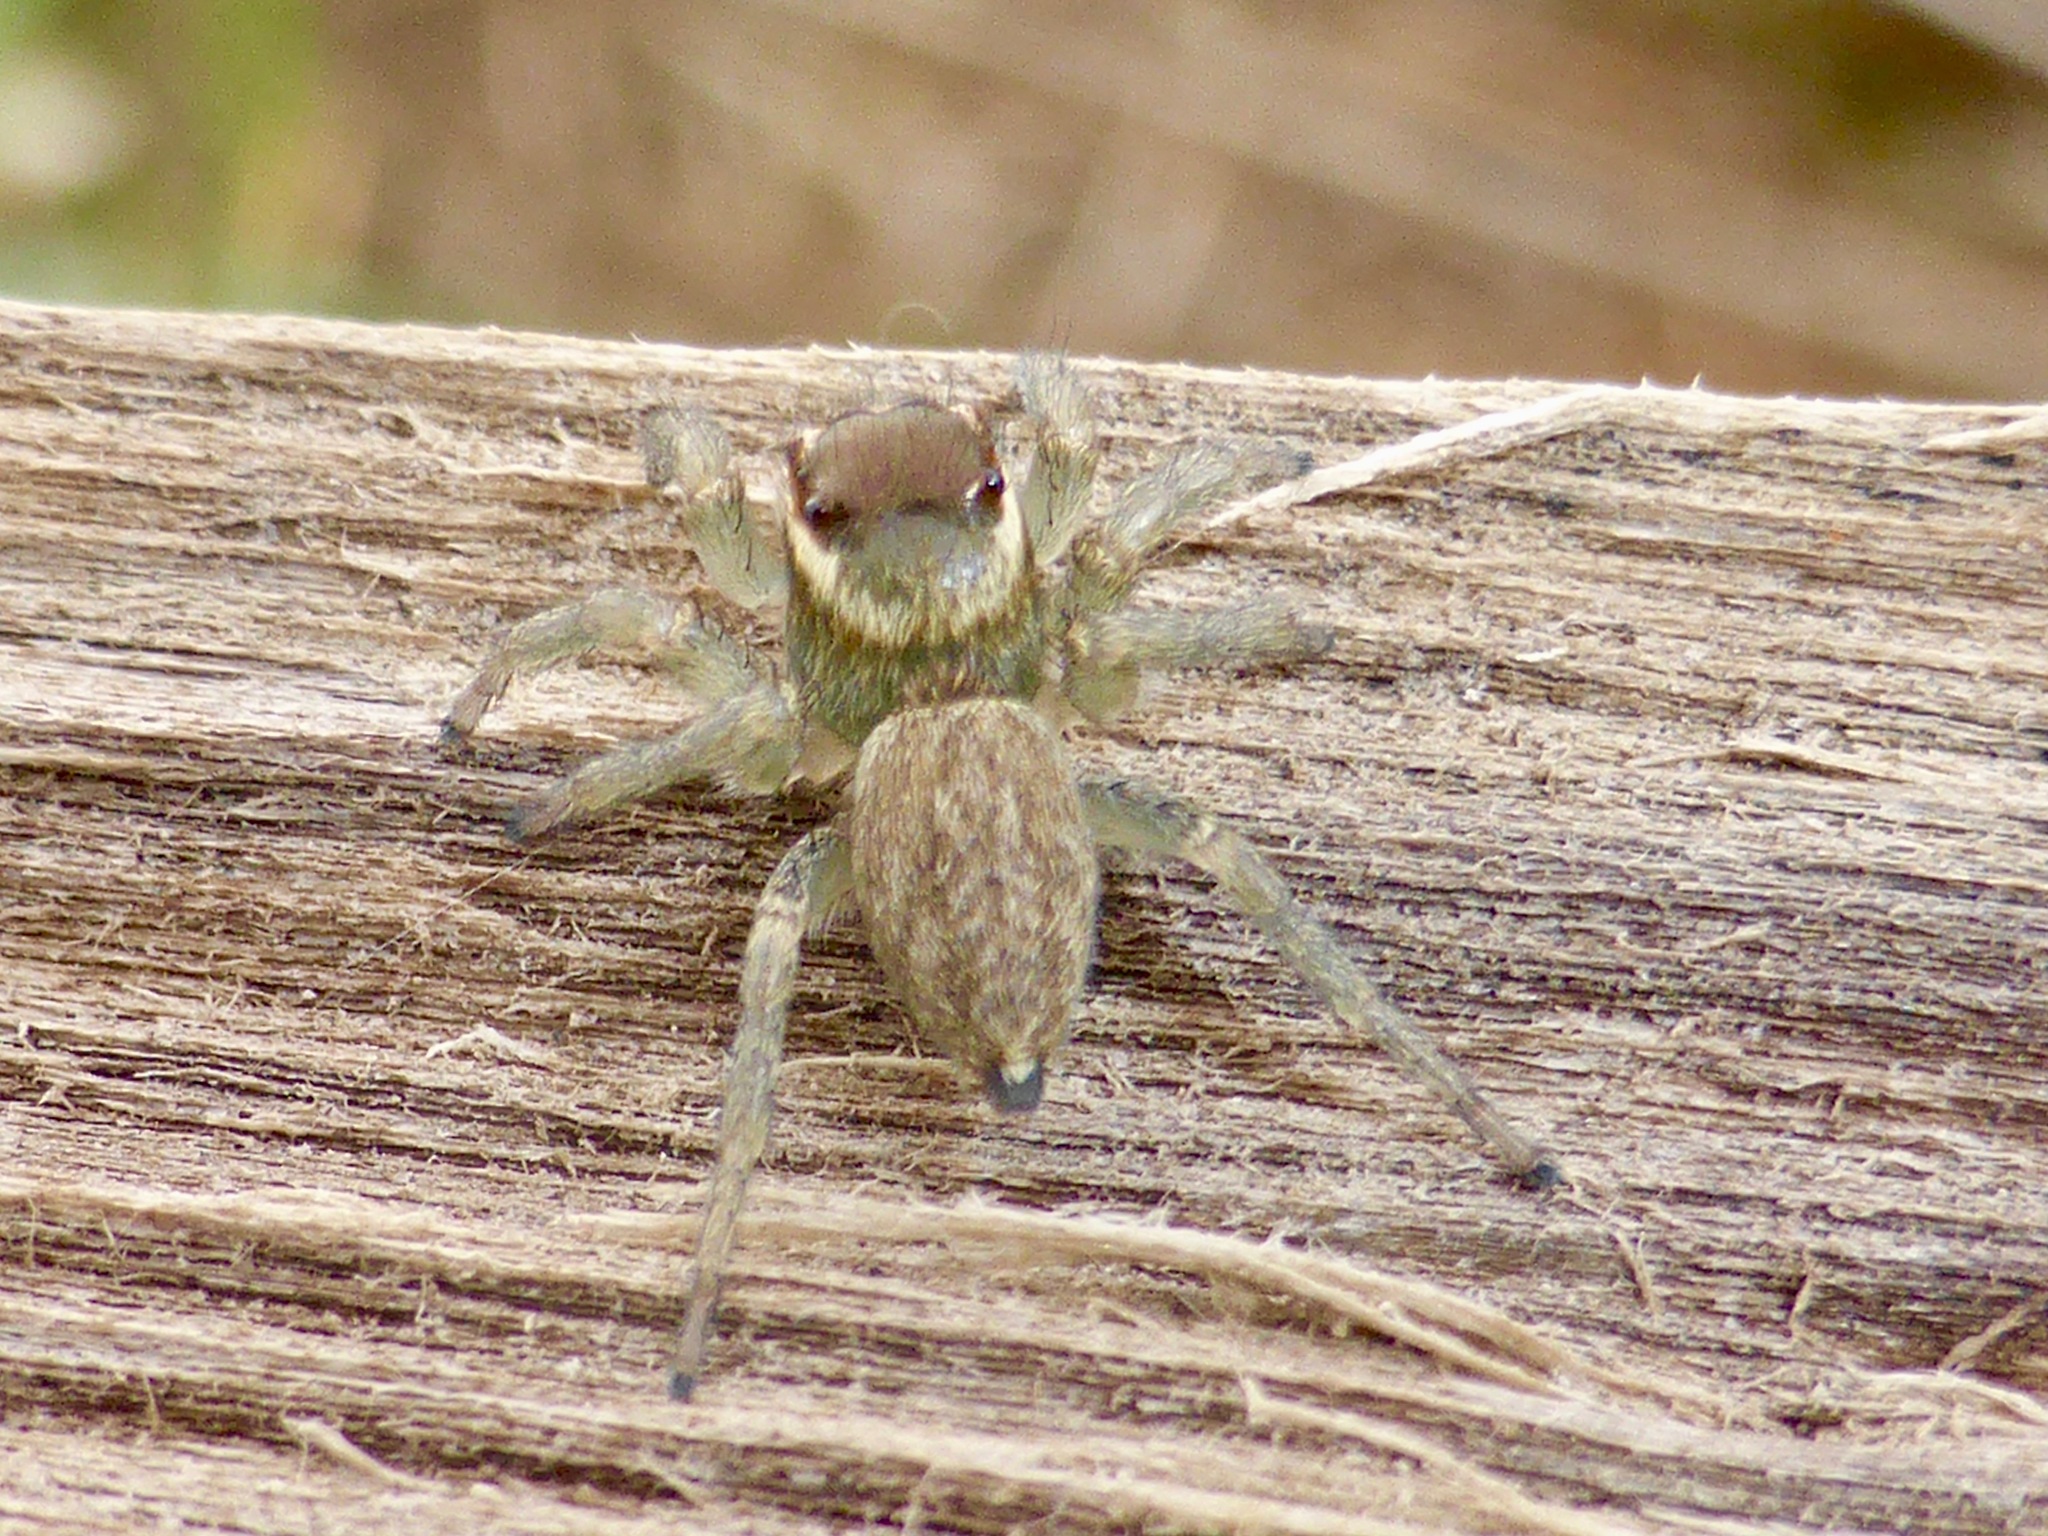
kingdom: Animalia
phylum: Arthropoda
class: Arachnida
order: Araneae
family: Salticidae
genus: Maratus
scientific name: Maratus griseus
